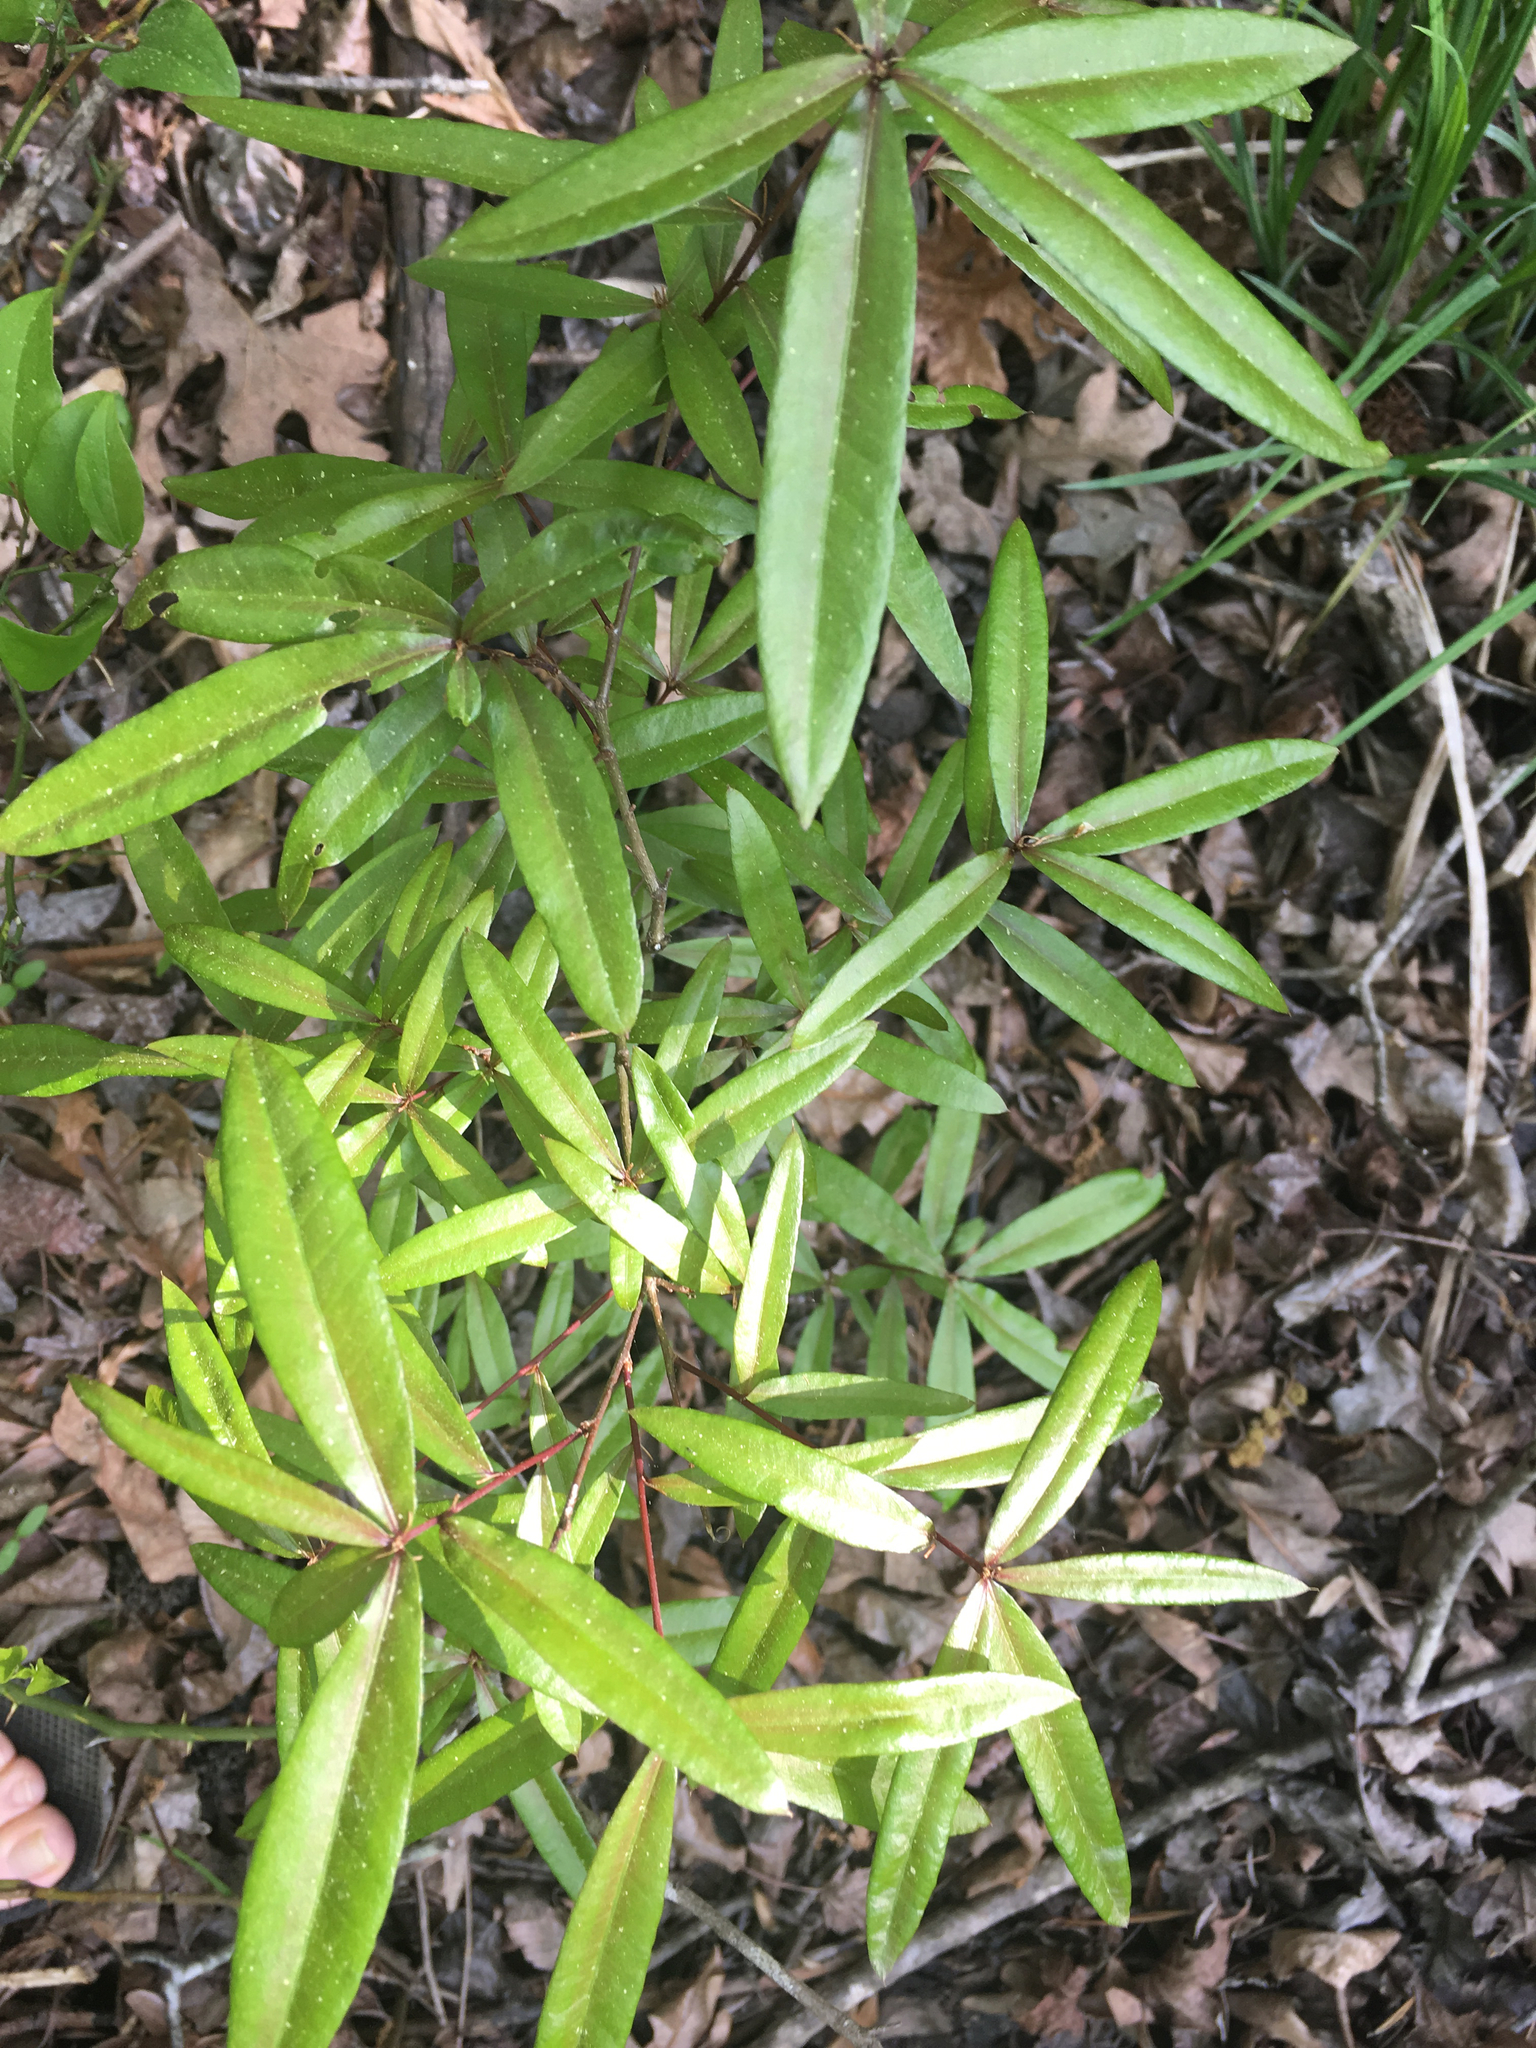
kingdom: Plantae
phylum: Tracheophyta
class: Magnoliopsida
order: Fagales
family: Fagaceae
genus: Quercus
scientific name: Quercus phellos
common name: Willow oak
